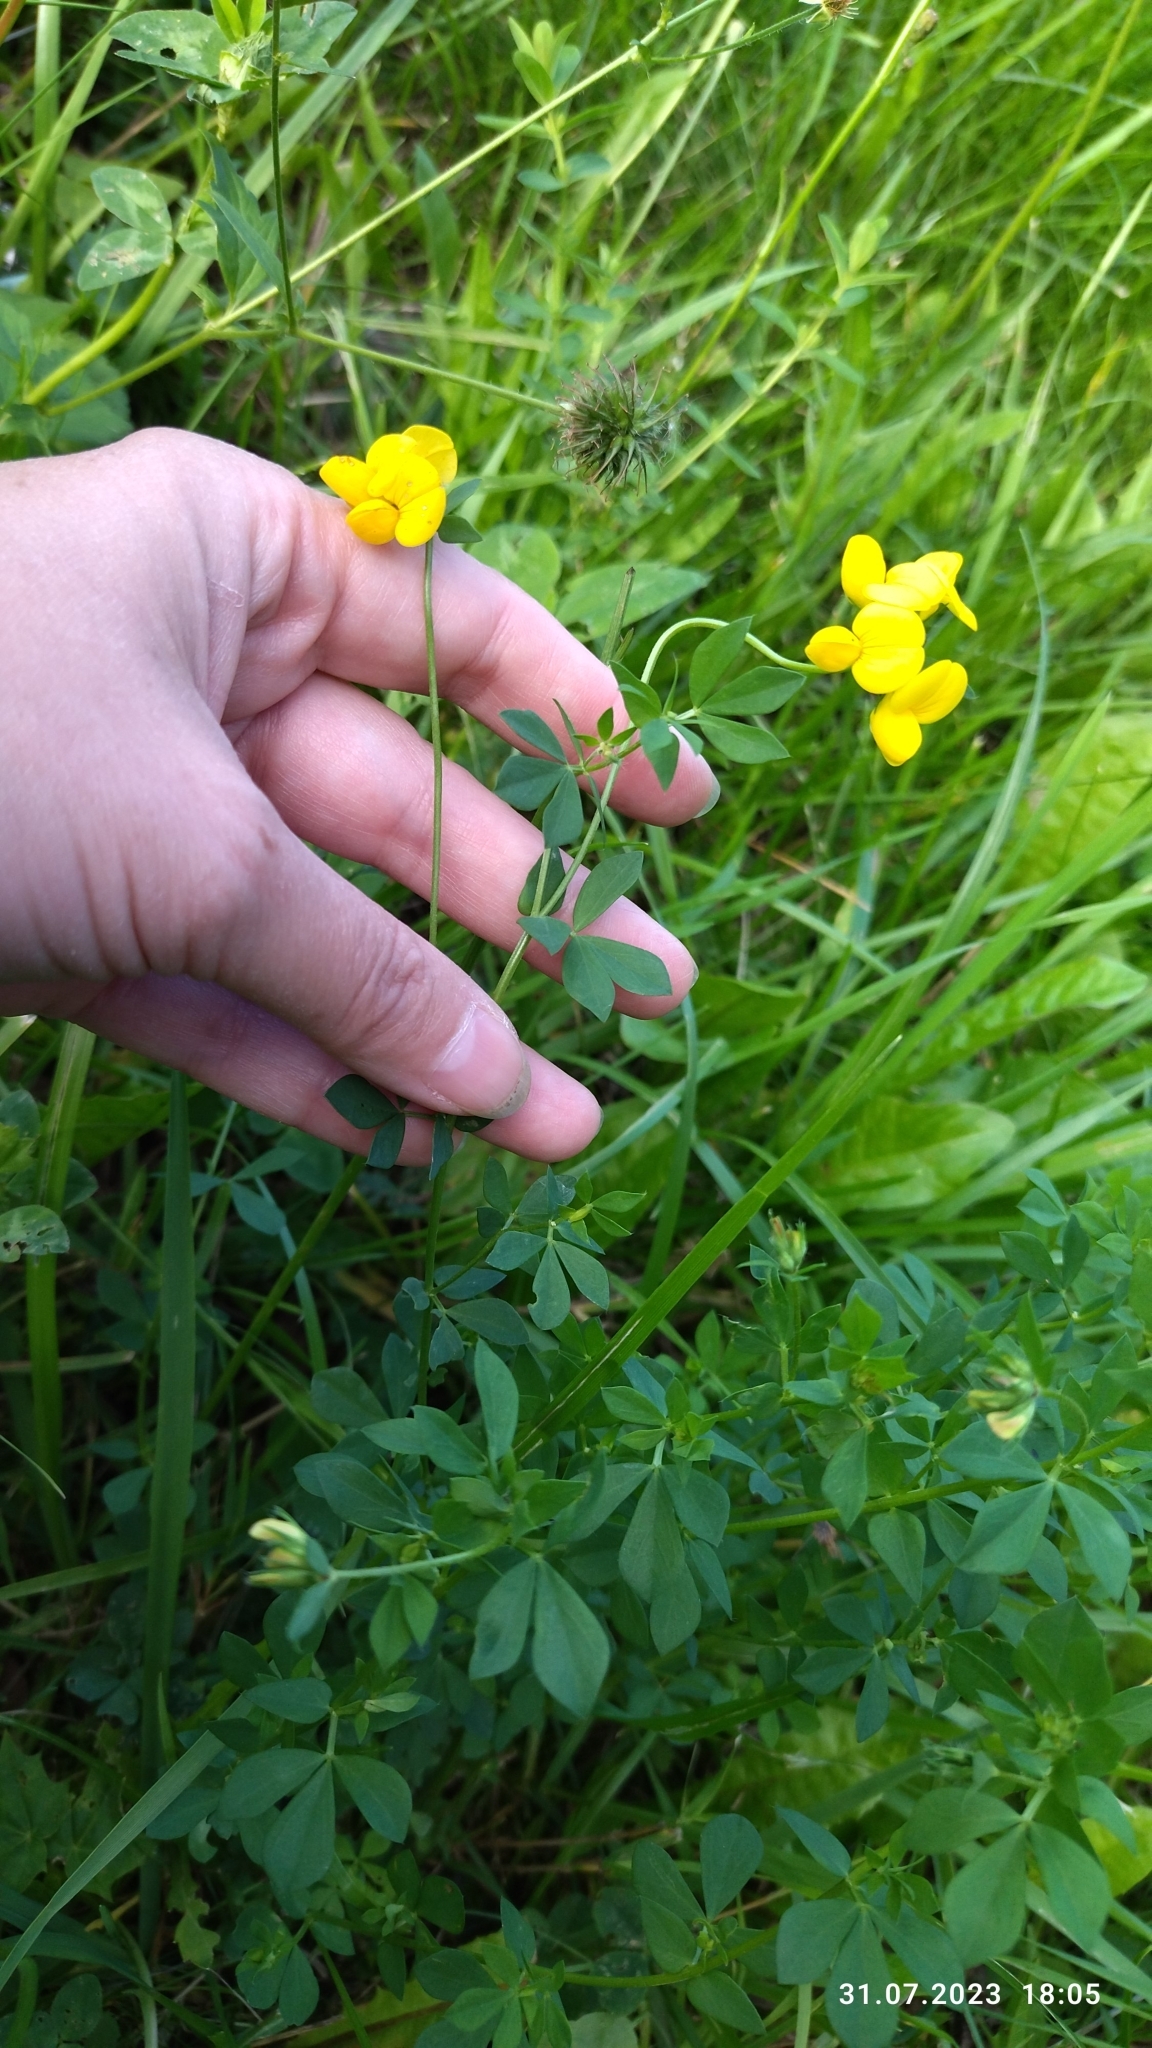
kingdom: Plantae
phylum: Tracheophyta
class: Magnoliopsida
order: Fabales
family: Fabaceae
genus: Lotus
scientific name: Lotus corniculatus
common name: Common bird's-foot-trefoil
